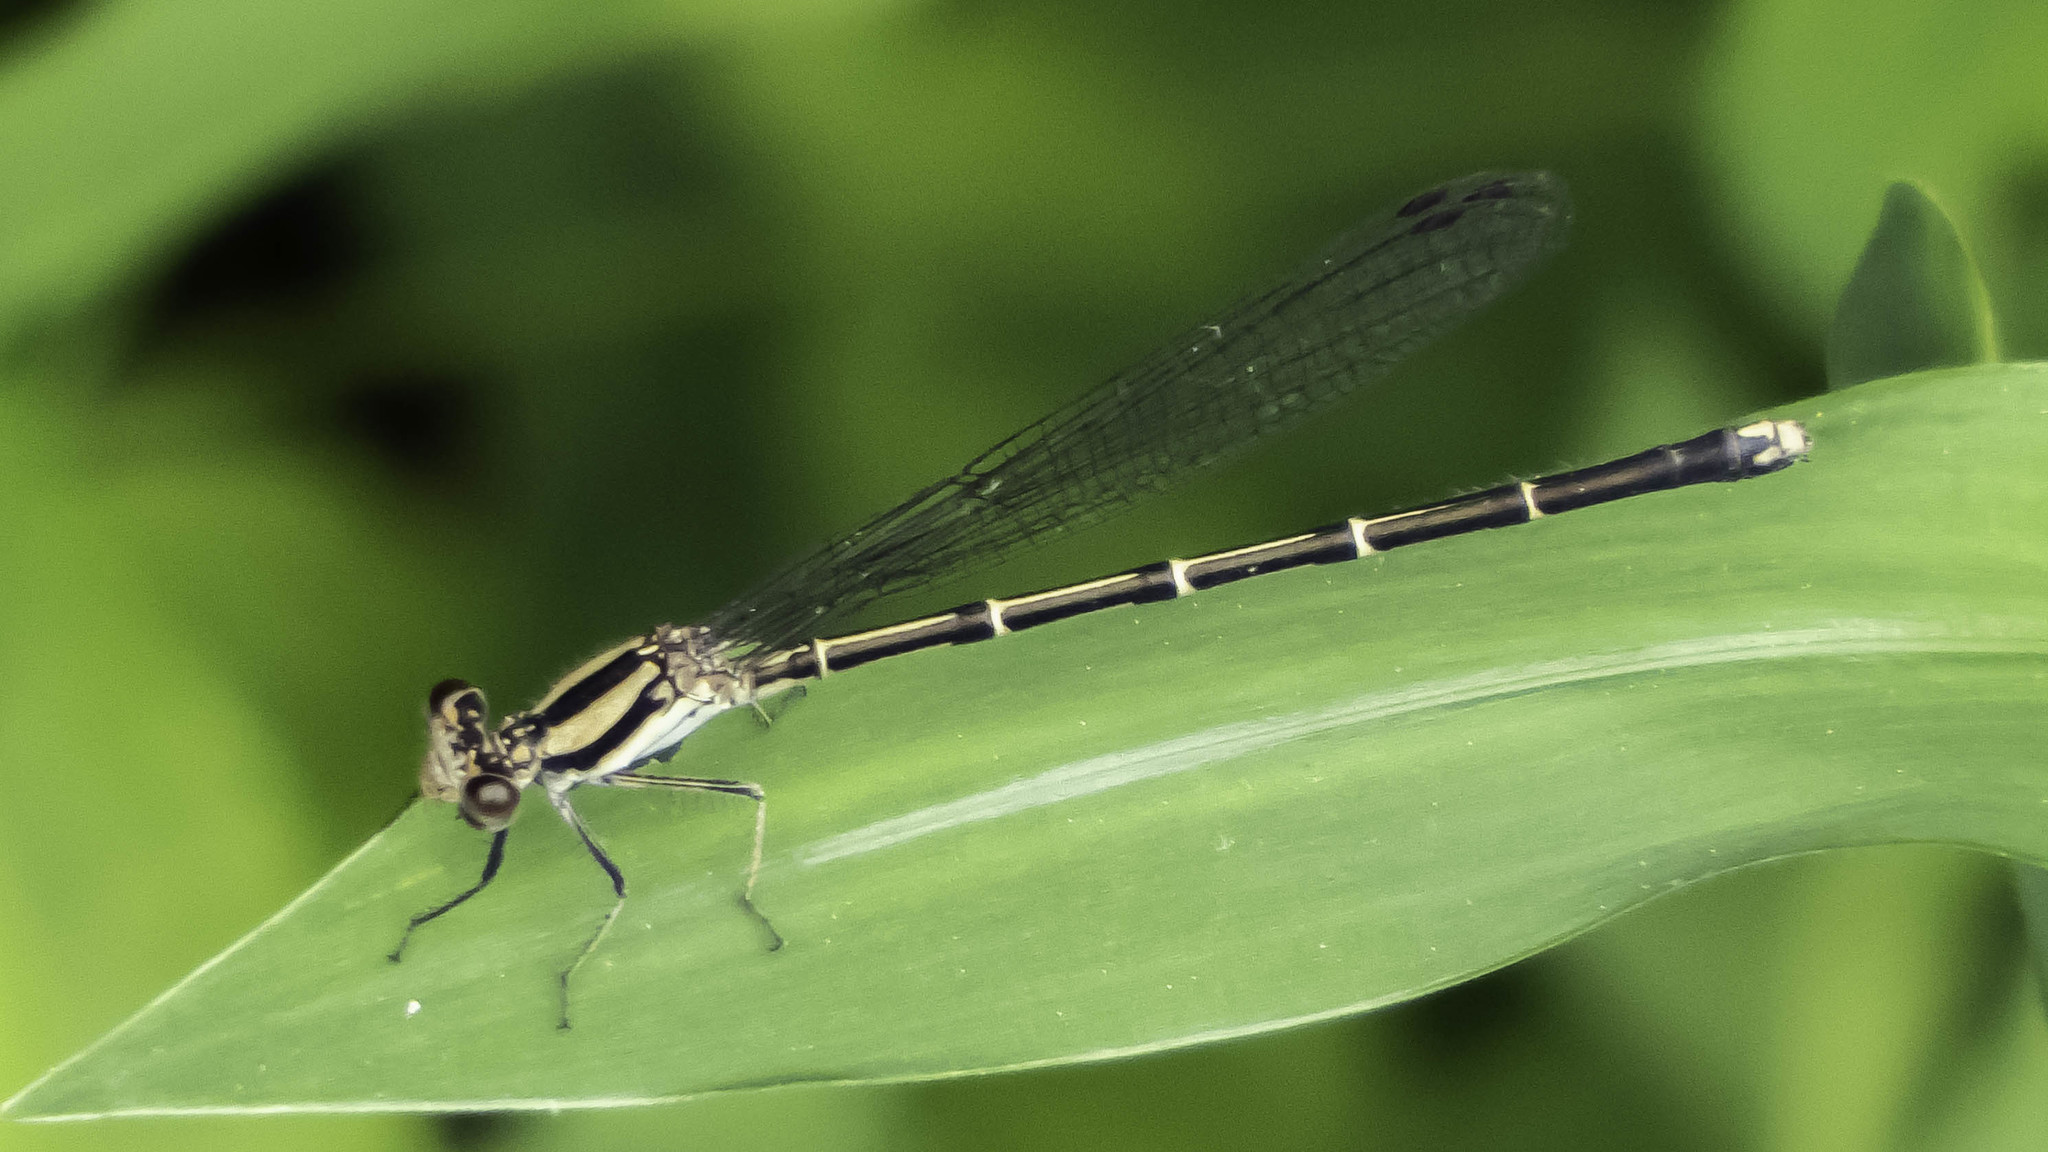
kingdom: Animalia
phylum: Arthropoda
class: Insecta
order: Odonata
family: Coenagrionidae
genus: Argia
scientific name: Argia tibialis
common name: Blue-tipped dancer
